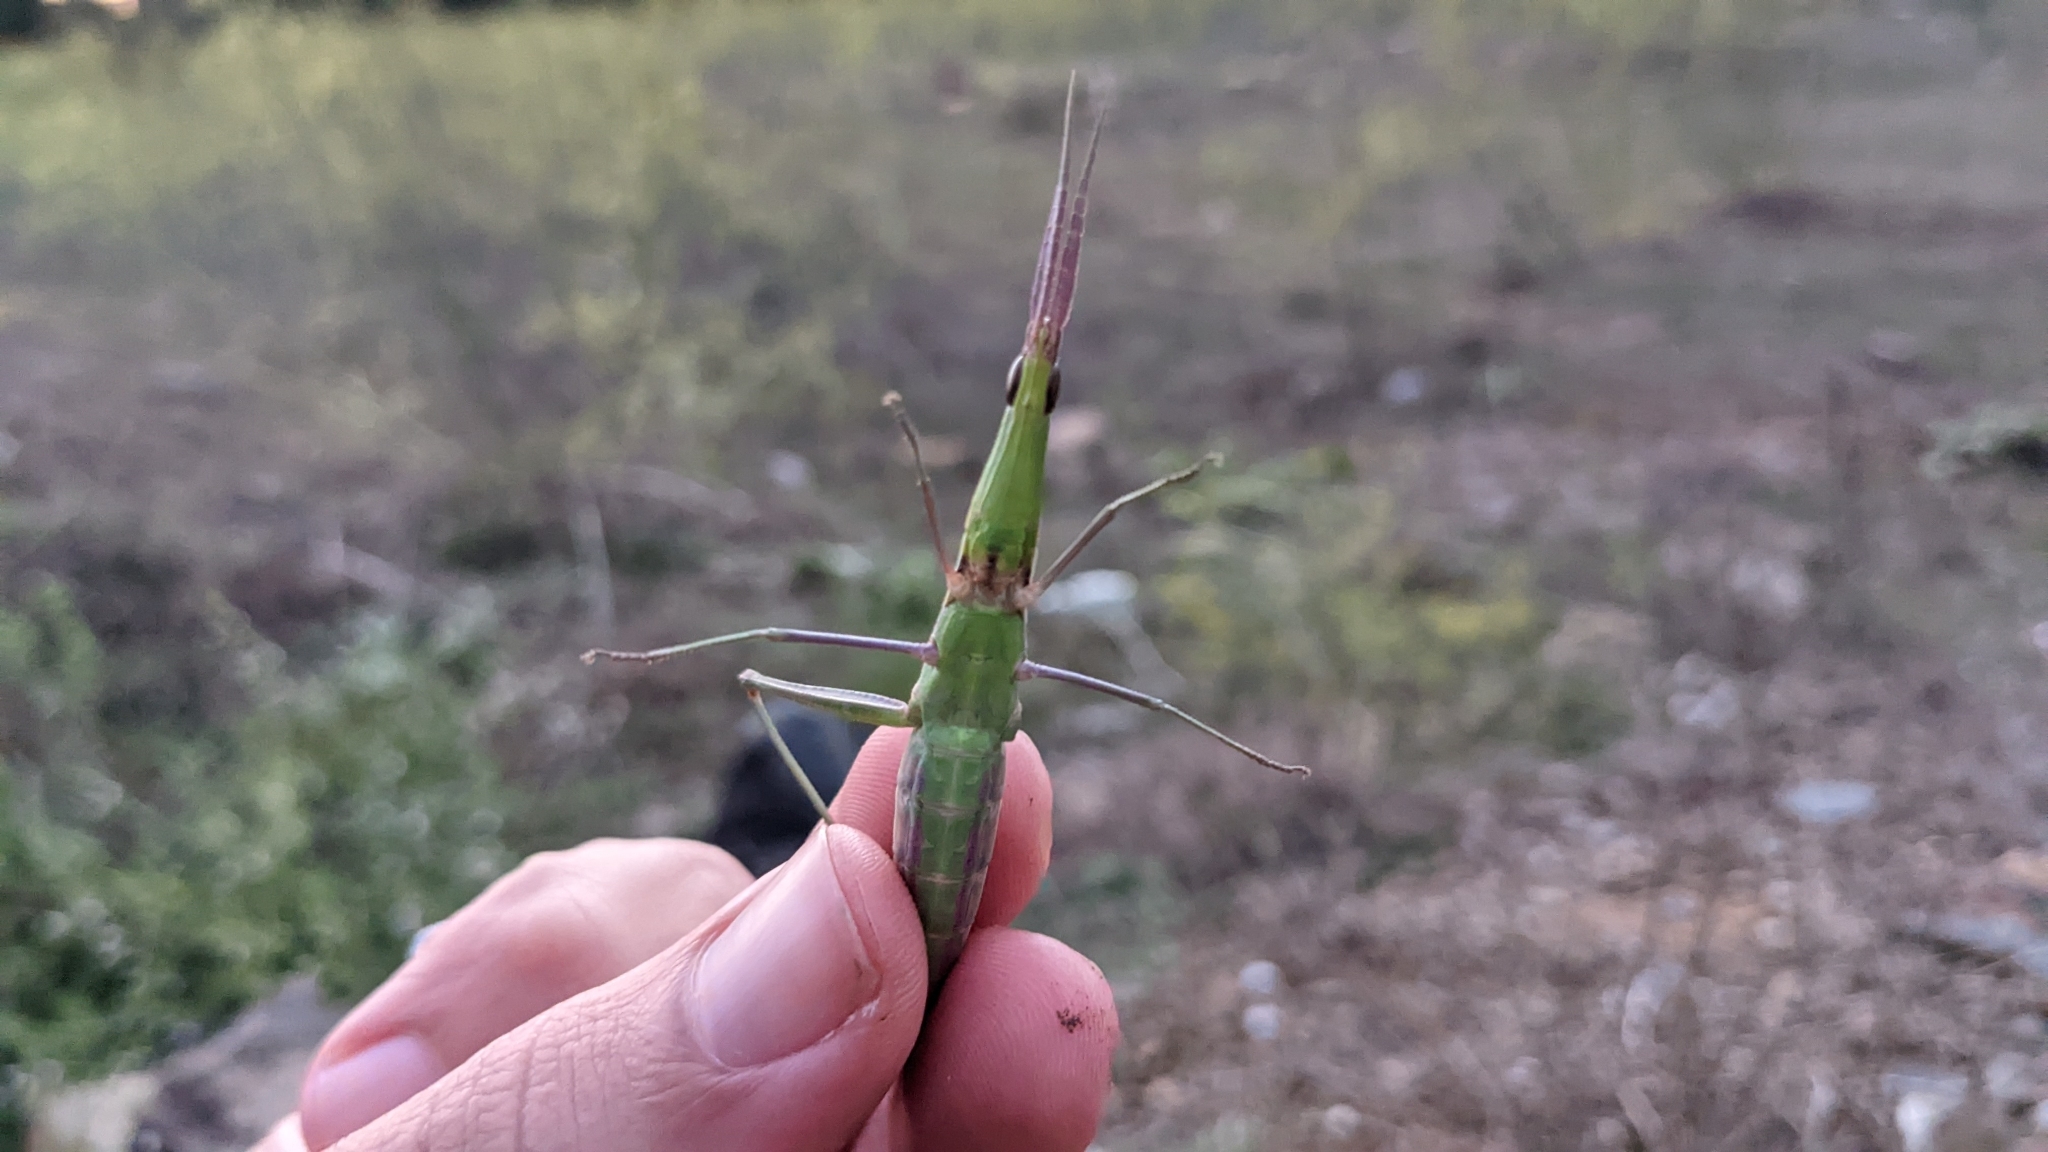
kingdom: Animalia
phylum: Arthropoda
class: Insecta
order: Orthoptera
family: Acrididae
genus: Acrida
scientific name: Acrida ungarica
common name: Common cone-headed grasshopper
